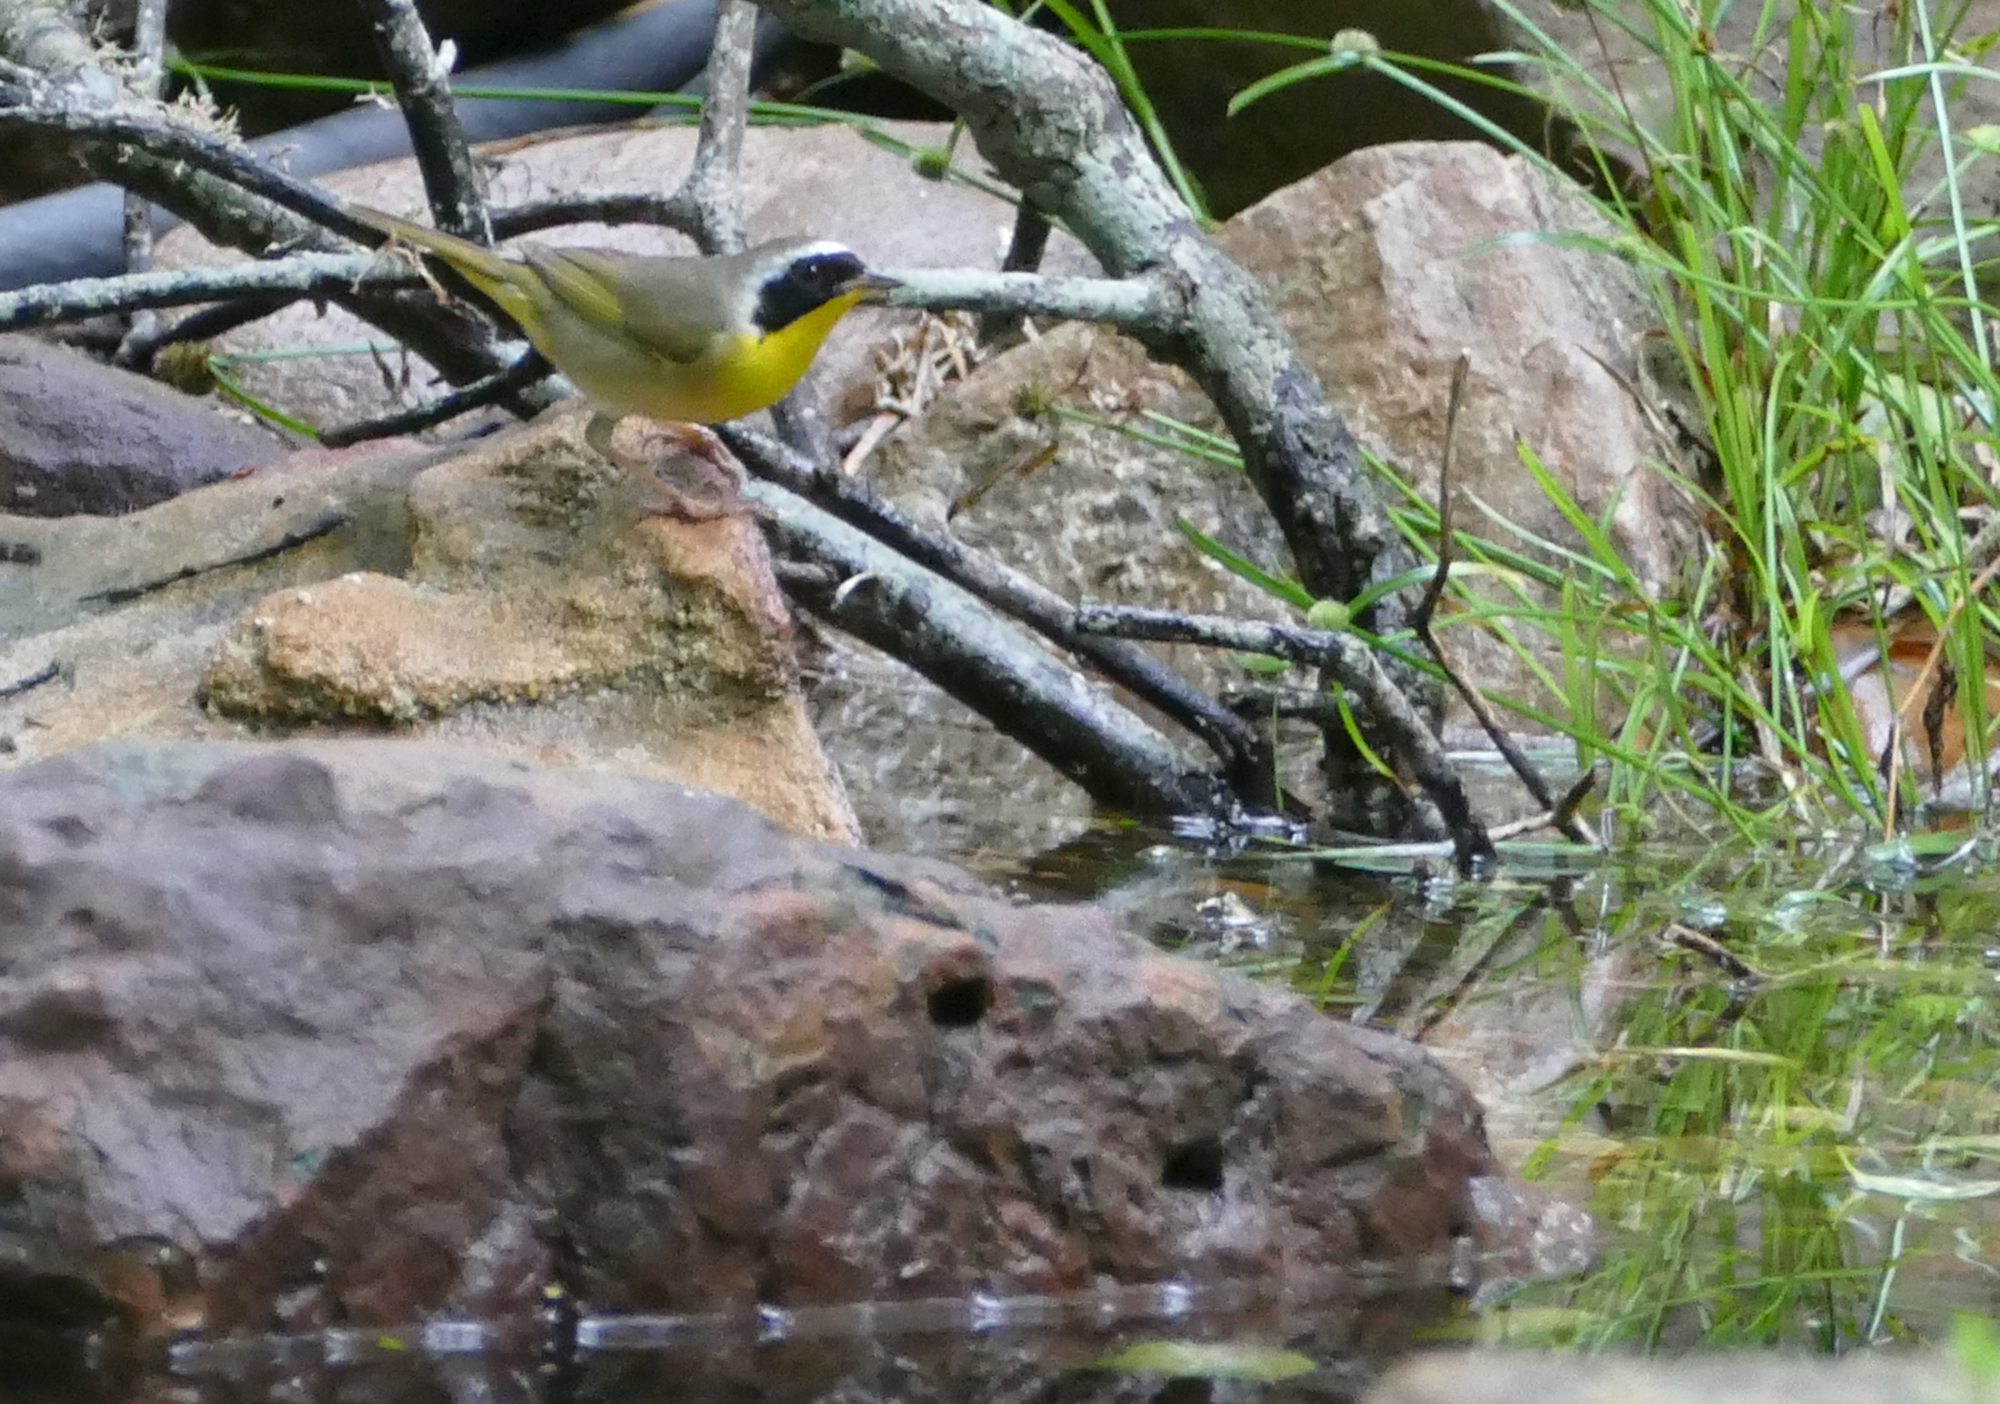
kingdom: Animalia
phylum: Chordata
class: Aves
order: Passeriformes
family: Parulidae
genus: Geothlypis
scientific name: Geothlypis trichas
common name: Common yellowthroat
